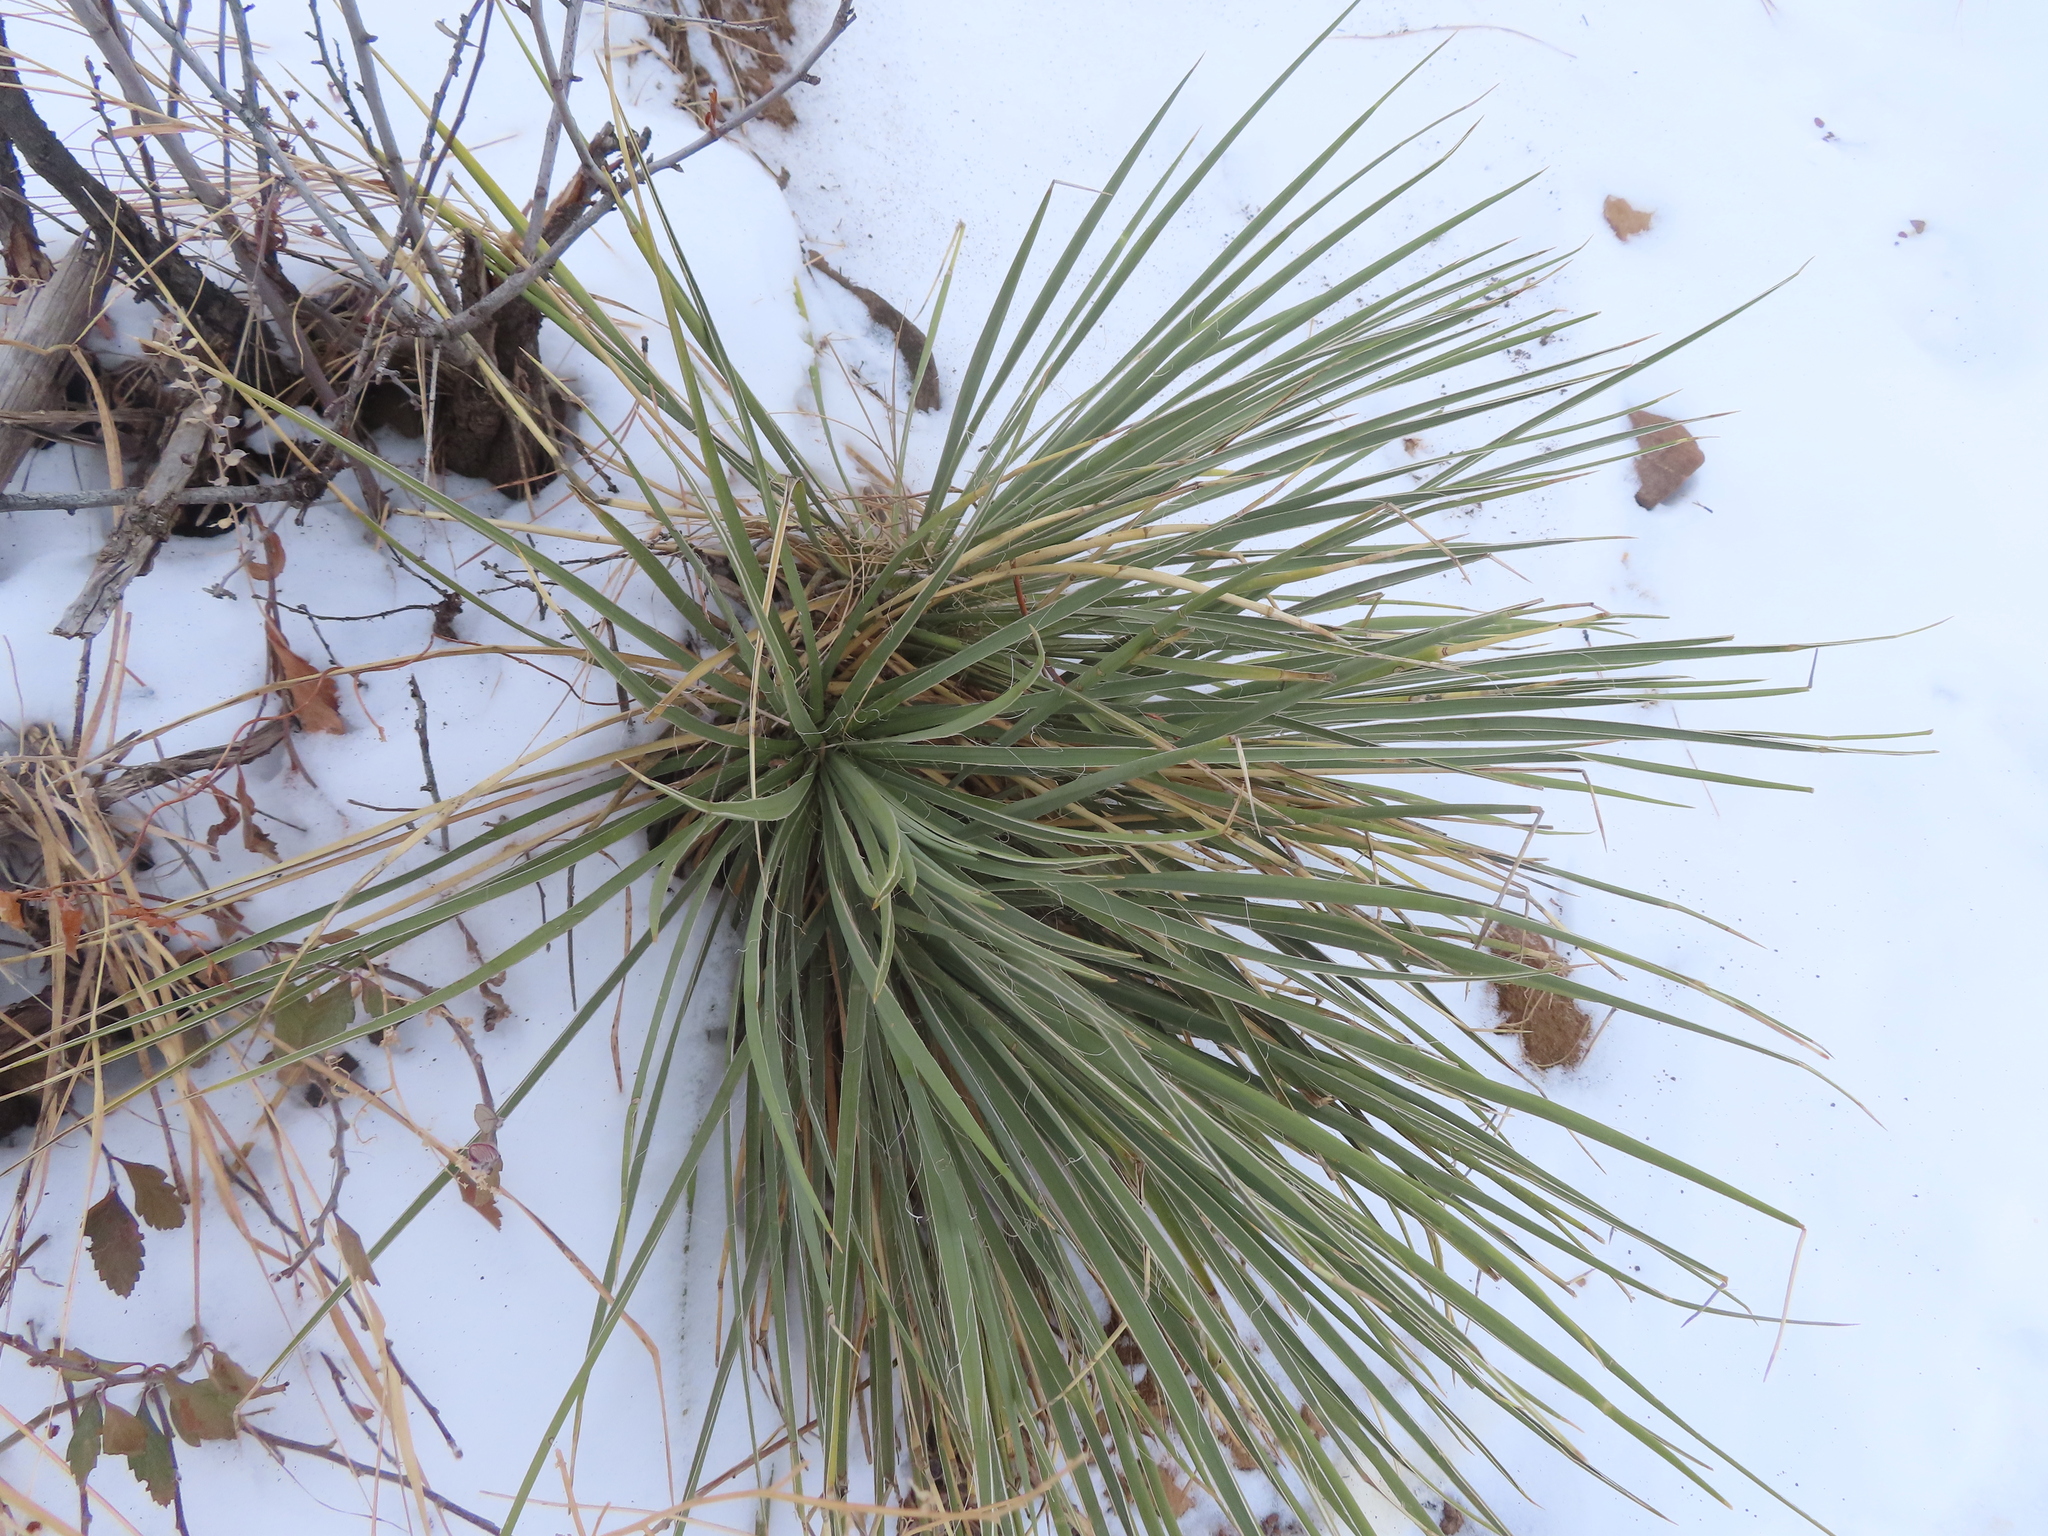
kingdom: Plantae
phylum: Tracheophyta
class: Liliopsida
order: Asparagales
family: Asparagaceae
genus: Yucca
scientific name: Yucca glauca
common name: Great plains yucca
